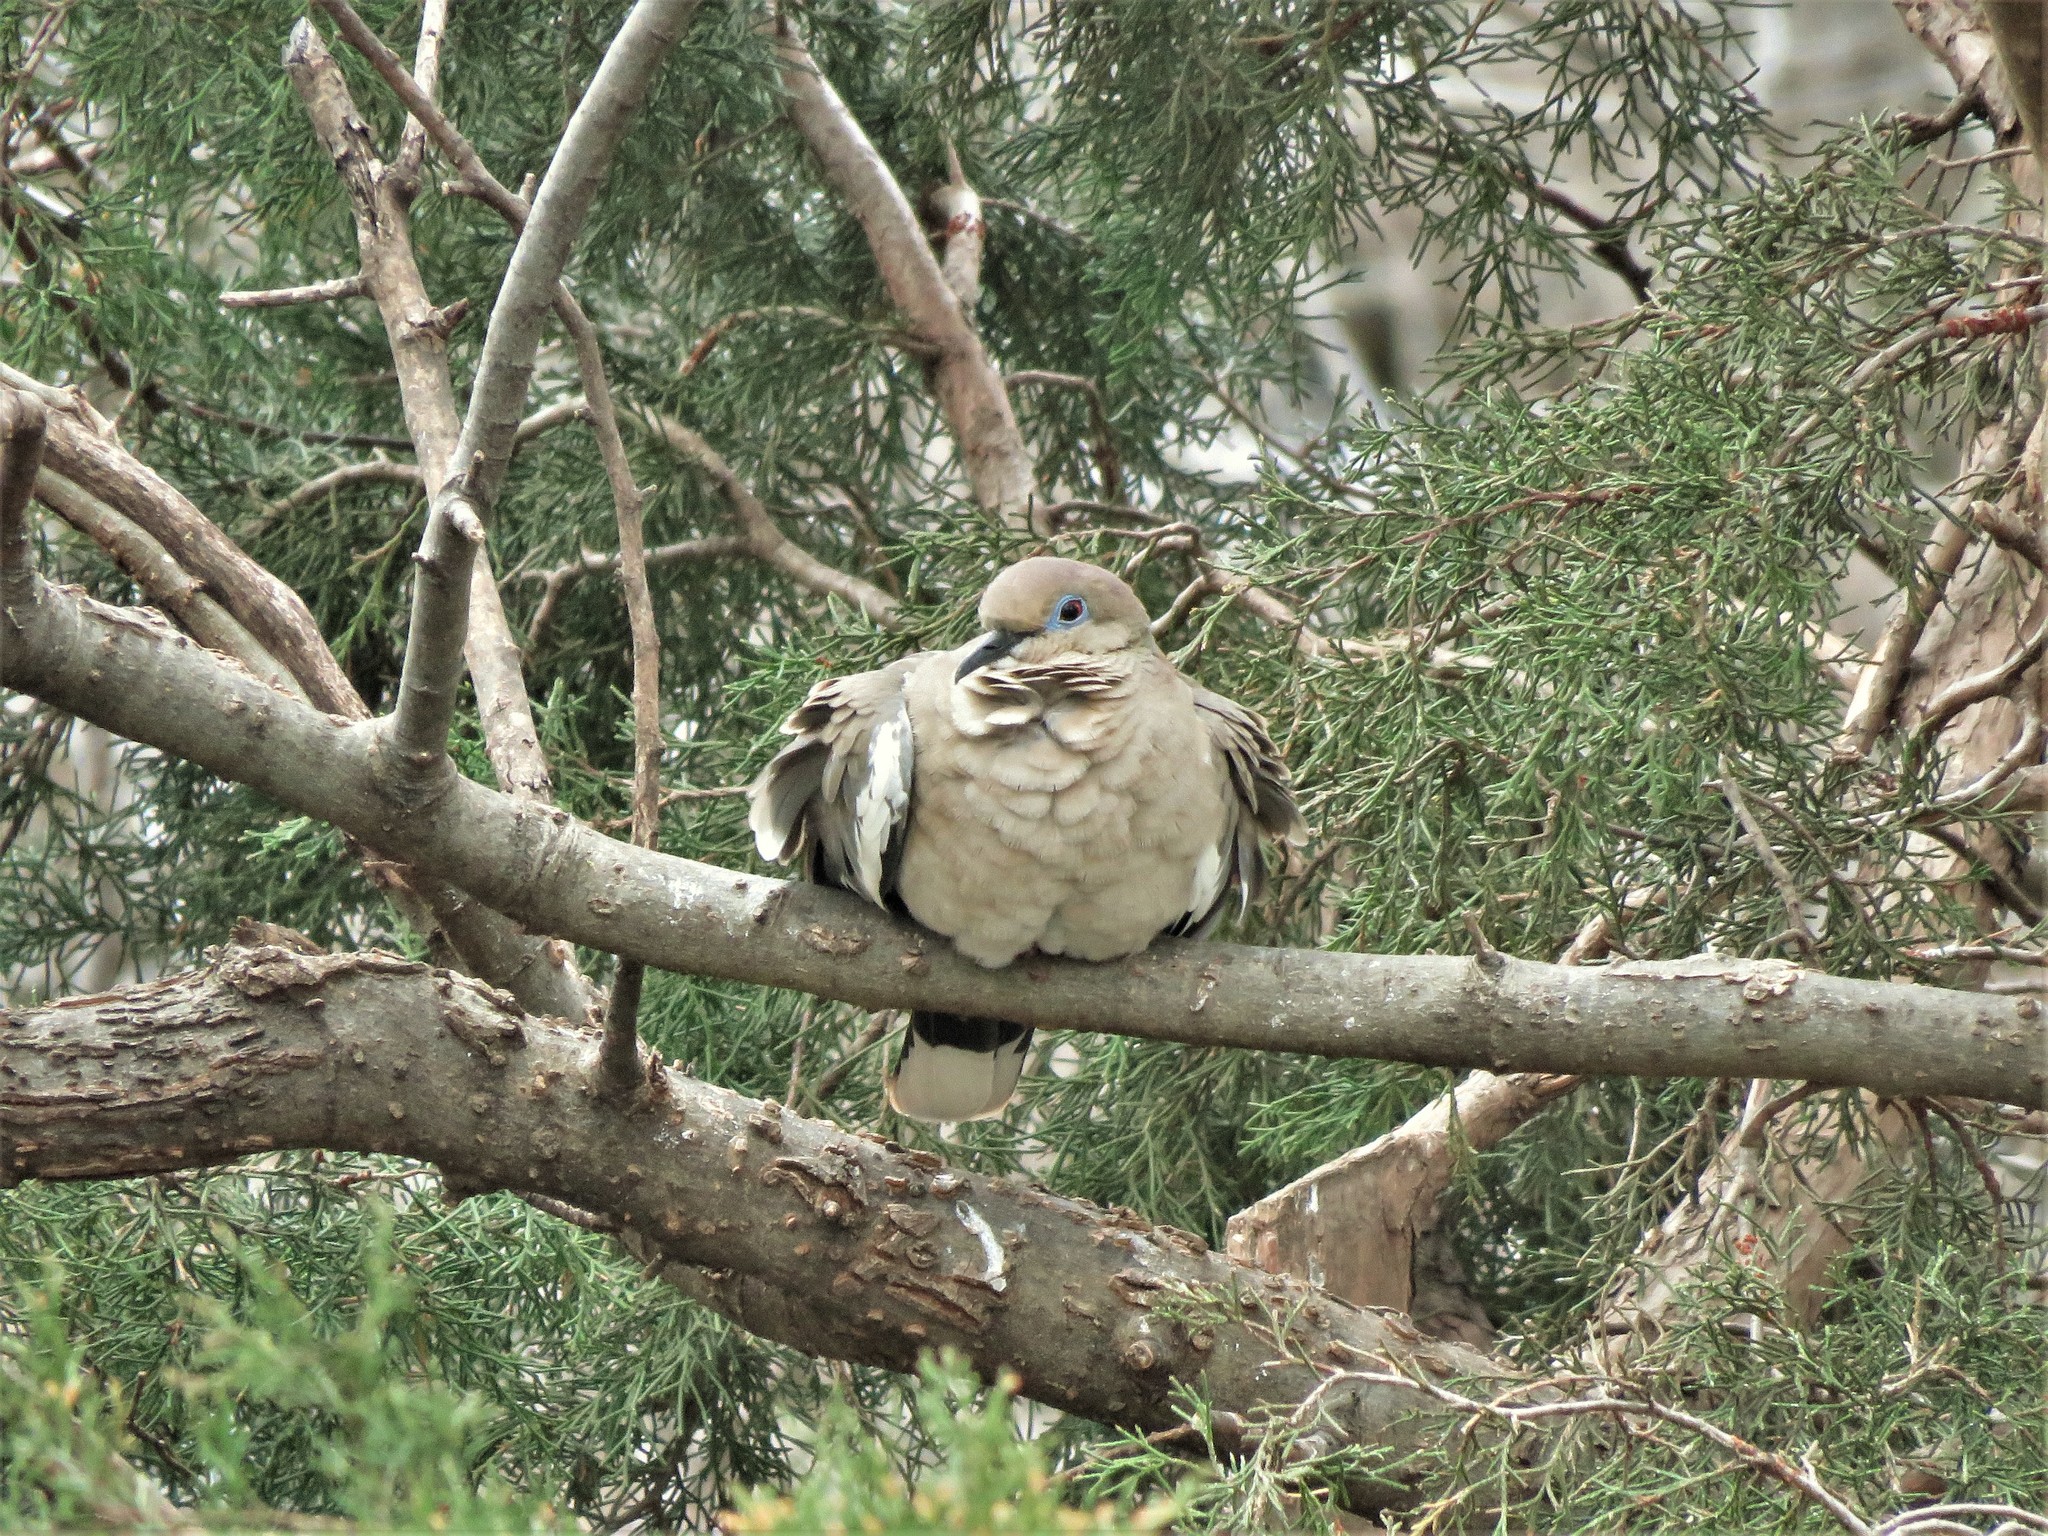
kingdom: Animalia
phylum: Chordata
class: Aves
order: Columbiformes
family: Columbidae
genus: Zenaida
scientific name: Zenaida asiatica
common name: White-winged dove
